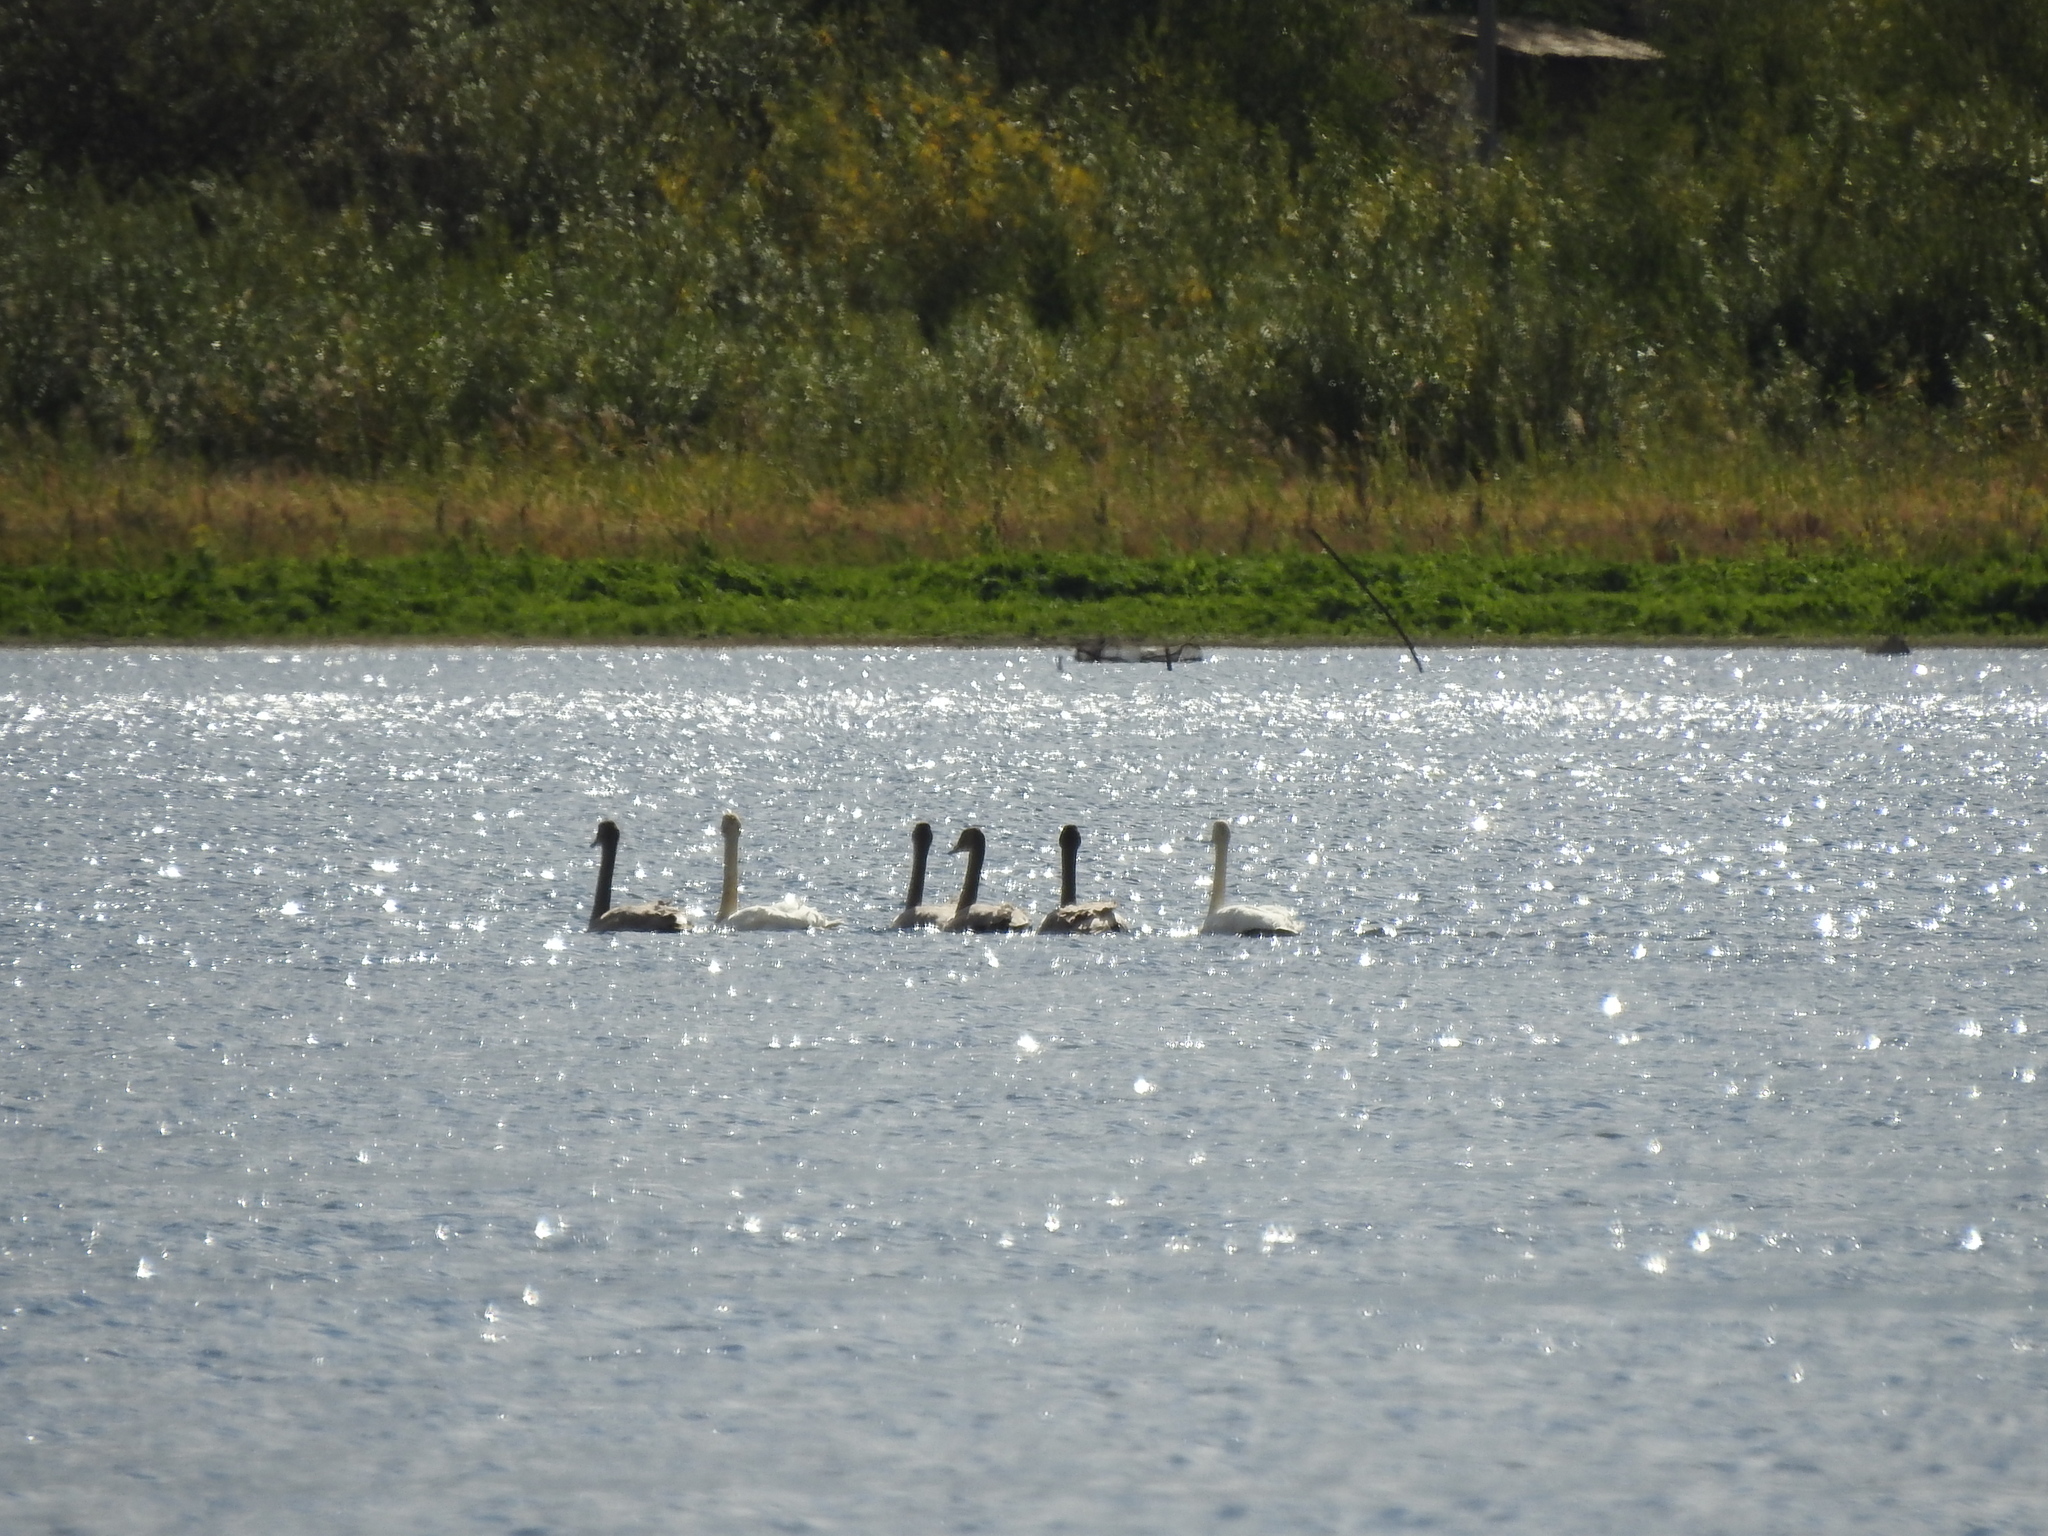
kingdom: Animalia
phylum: Chordata
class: Aves
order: Anseriformes
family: Anatidae
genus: Cygnus
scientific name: Cygnus cygnus
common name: Whooper swan
